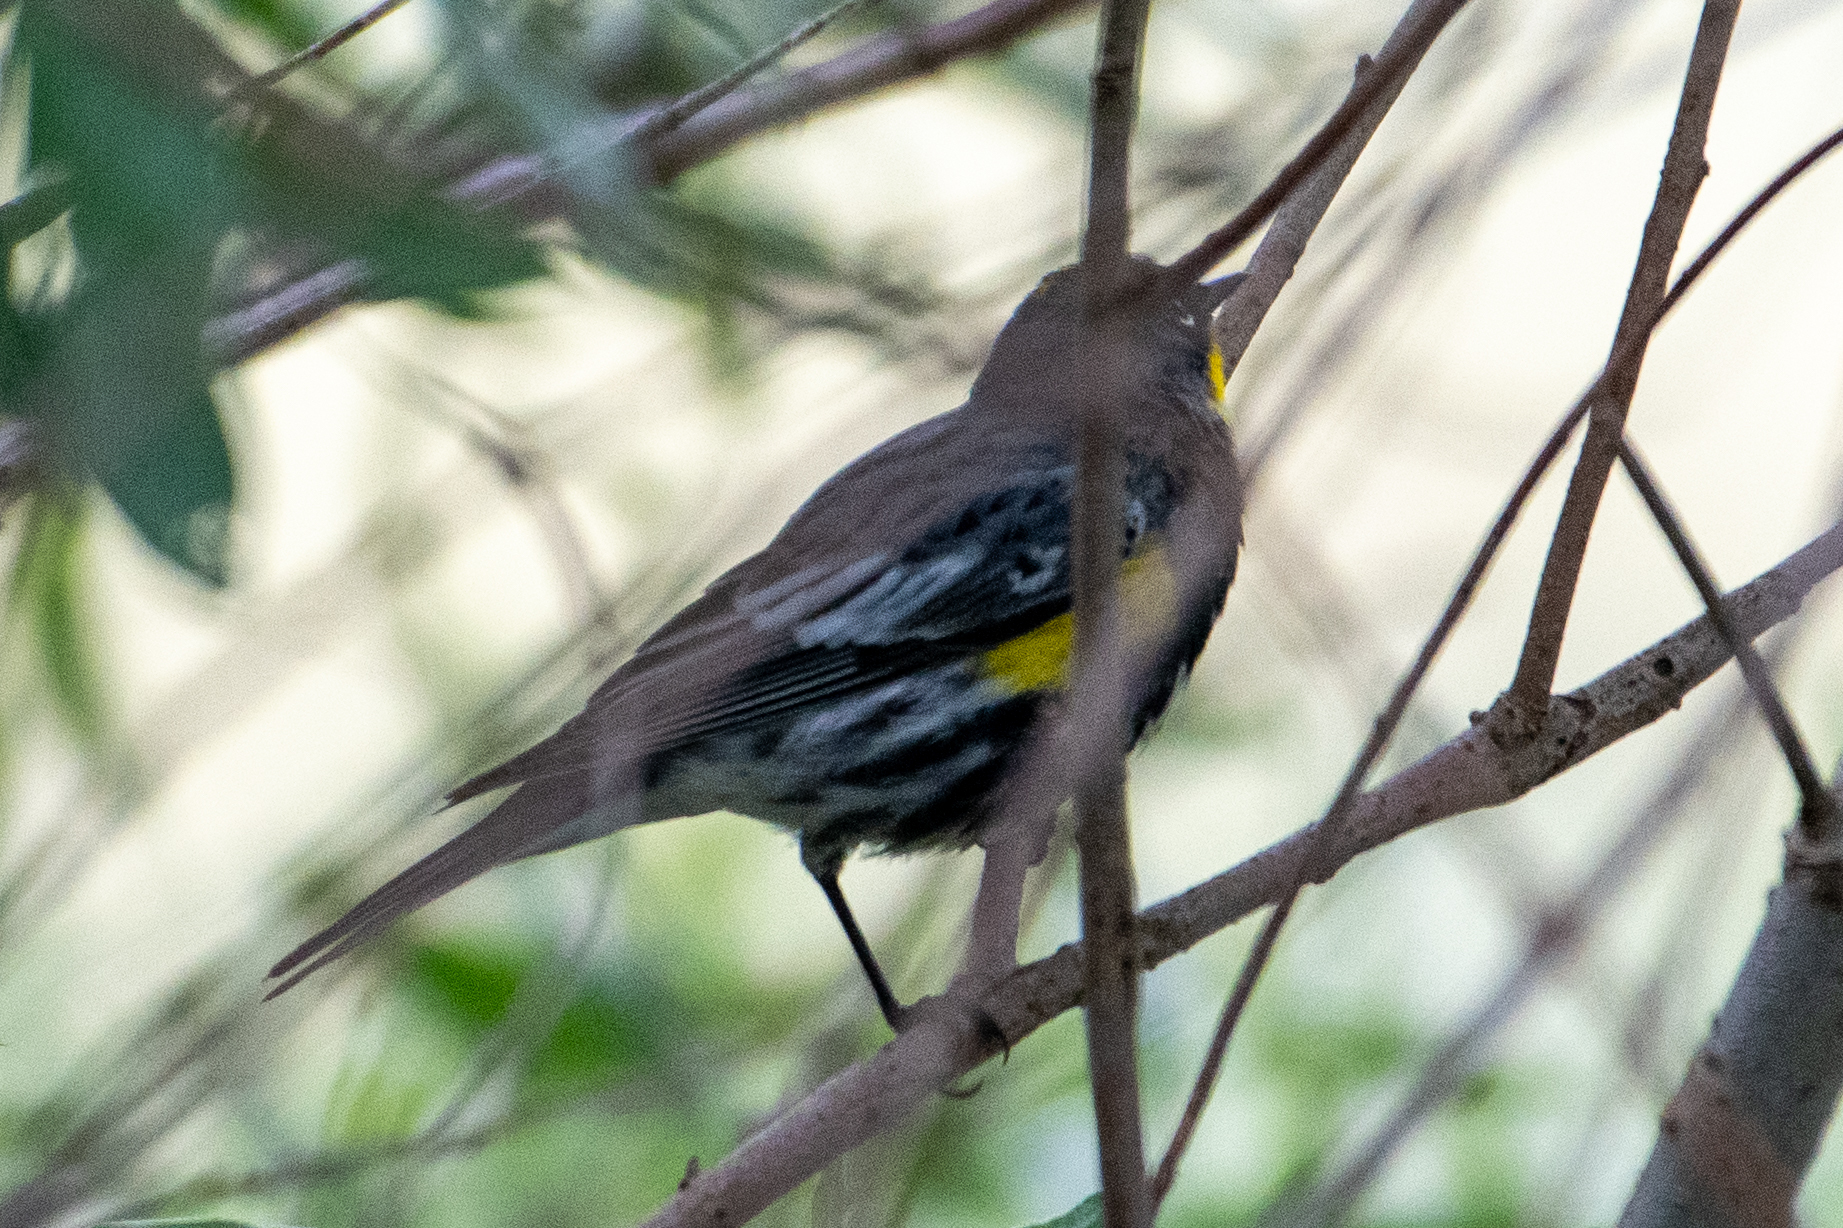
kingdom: Animalia
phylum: Chordata
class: Aves
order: Passeriformes
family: Parulidae
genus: Setophaga
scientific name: Setophaga coronata
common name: Myrtle warbler
